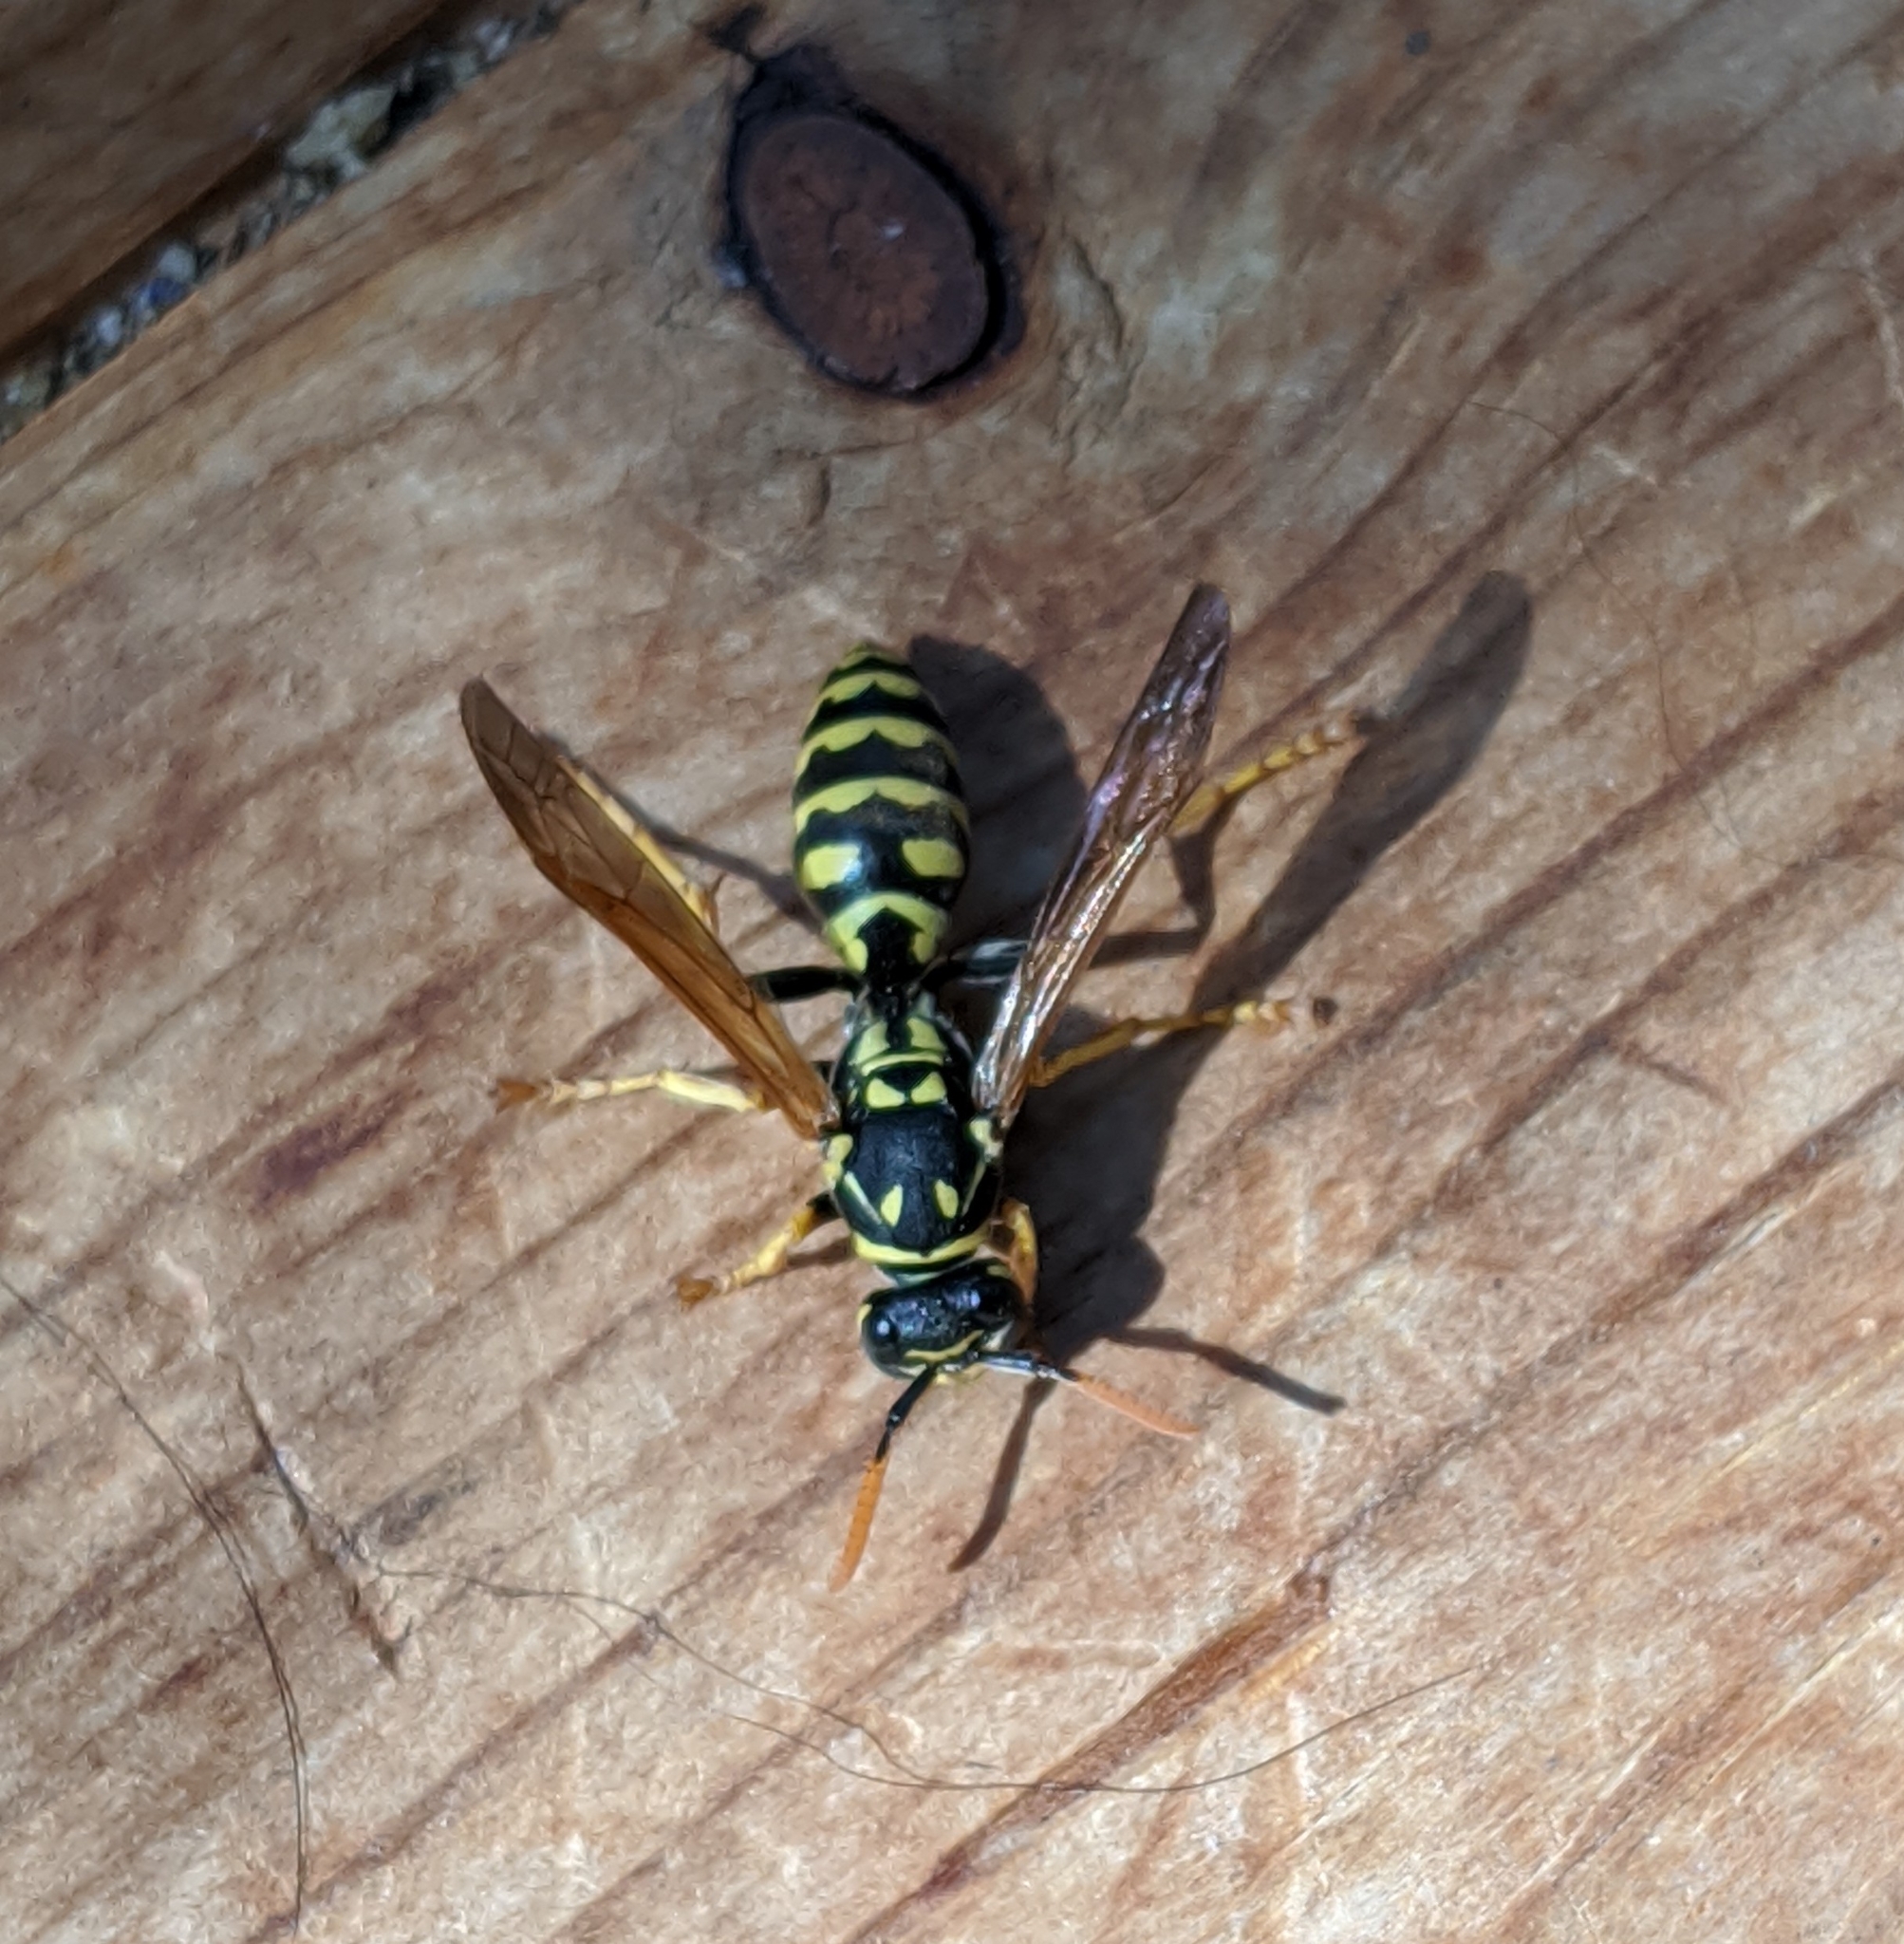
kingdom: Animalia
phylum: Arthropoda
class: Insecta
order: Hymenoptera
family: Eumenidae
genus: Polistes
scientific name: Polistes dominula
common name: Paper wasp
